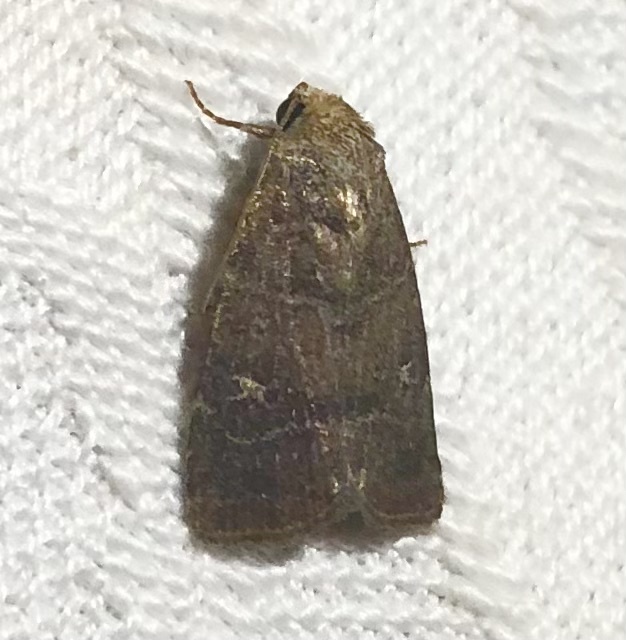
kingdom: Animalia
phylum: Arthropoda
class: Insecta
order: Lepidoptera
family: Noctuidae
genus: Elaphria
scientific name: Elaphria grata
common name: Grateful midget moth
